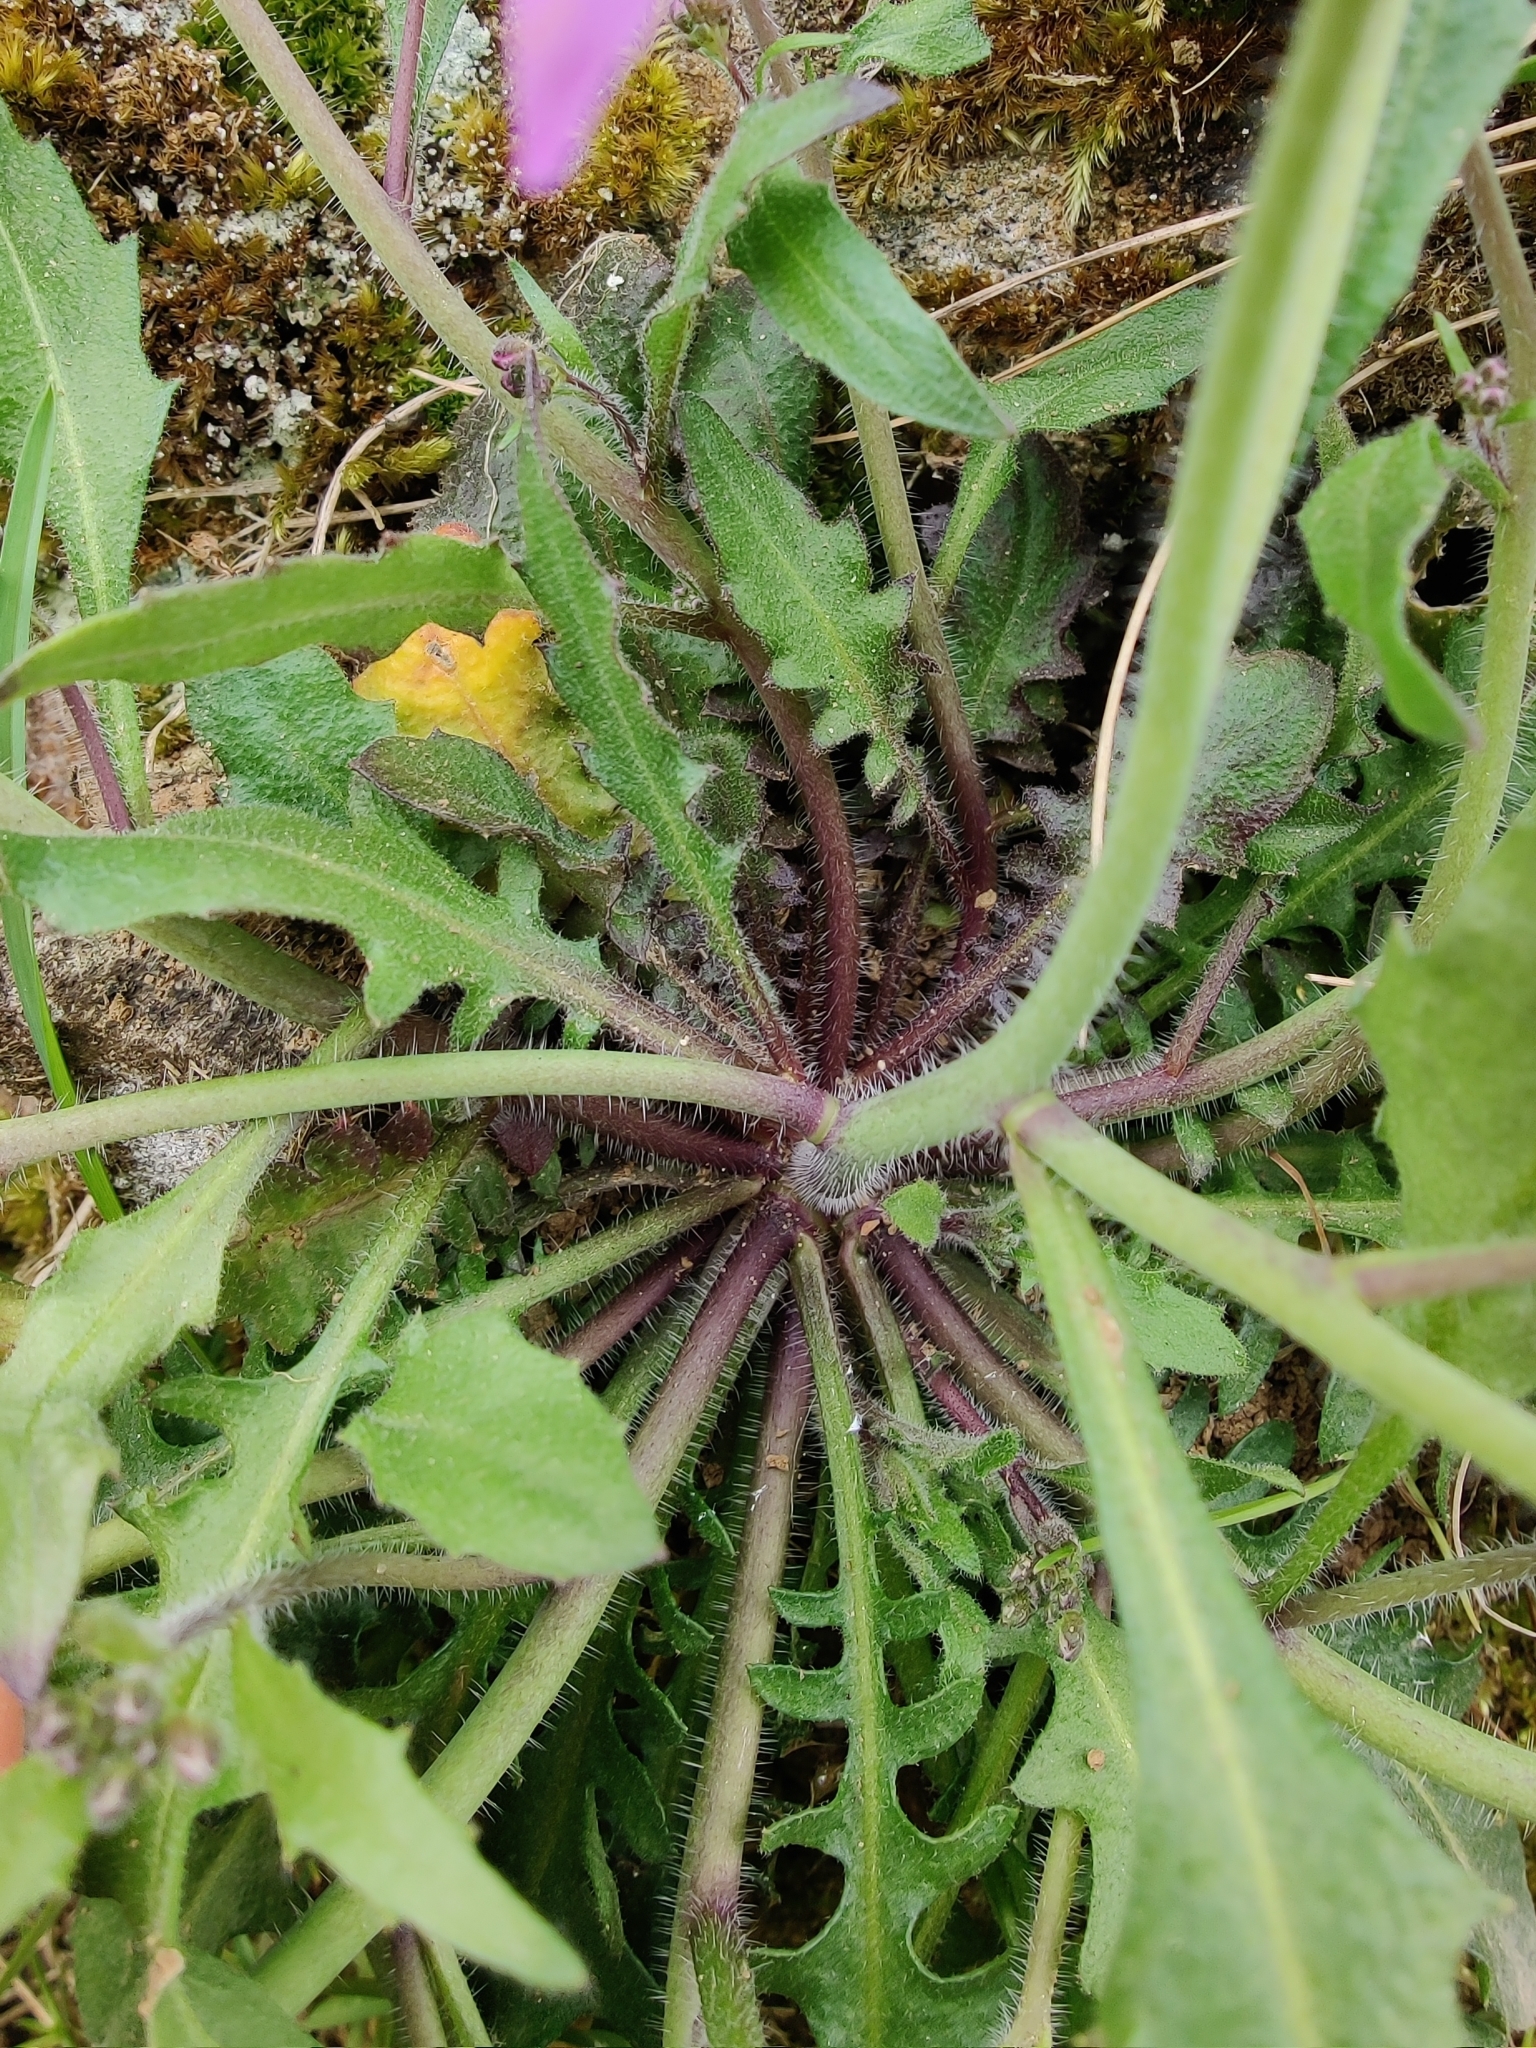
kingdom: Plantae
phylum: Tracheophyta
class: Magnoliopsida
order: Brassicales
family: Brassicaceae
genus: Arabidopsis
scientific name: Arabidopsis arenosa
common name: Sand rock-cress
